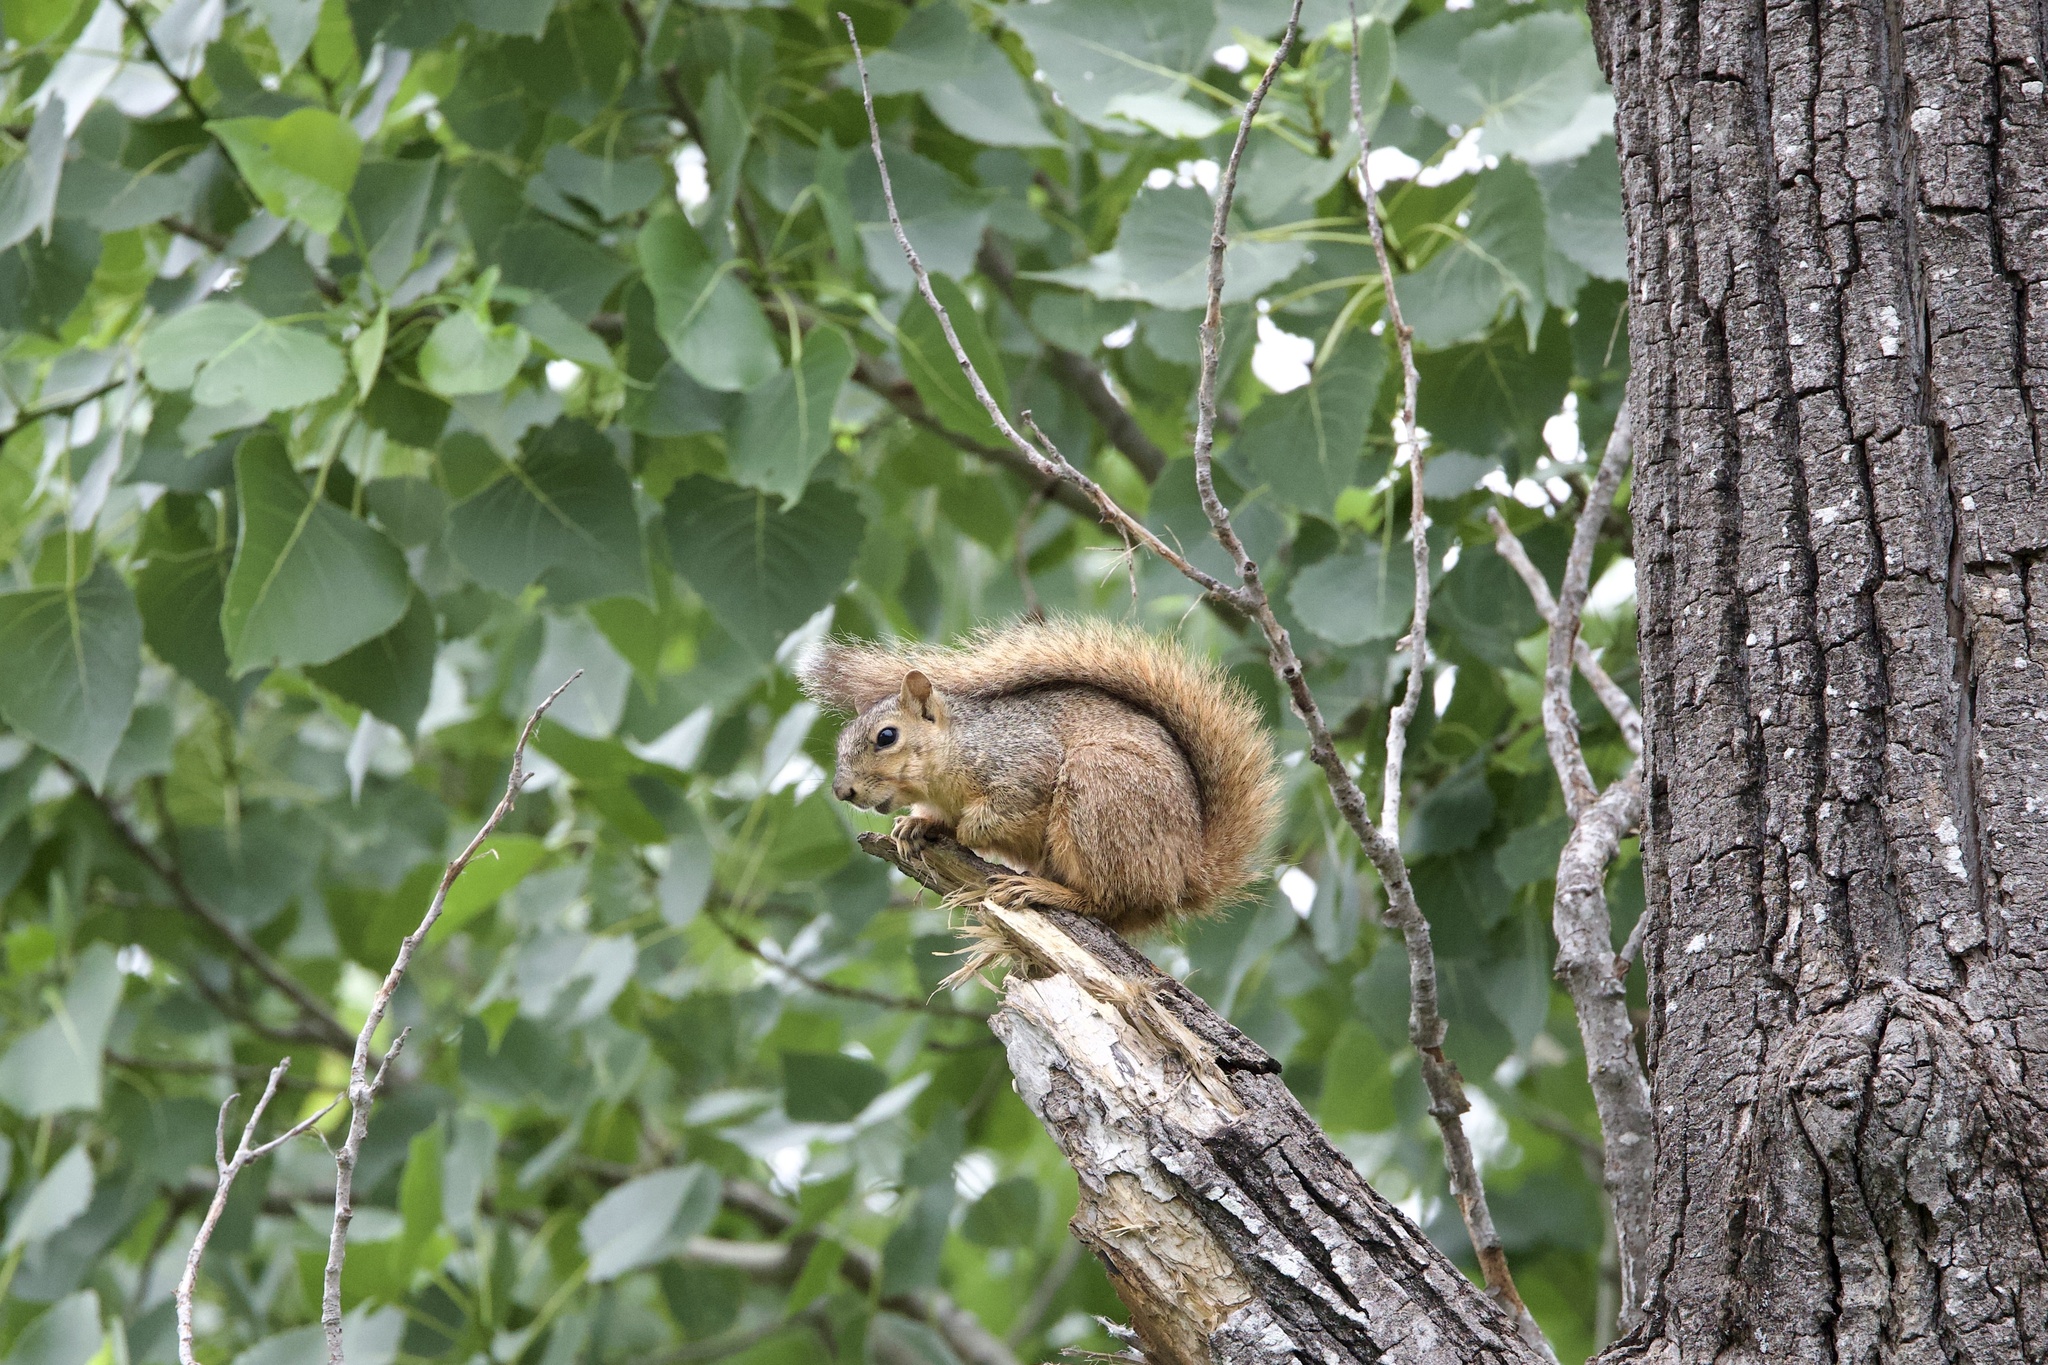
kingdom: Animalia
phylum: Chordata
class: Mammalia
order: Rodentia
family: Sciuridae
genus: Sciurus
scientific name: Sciurus niger
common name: Fox squirrel
